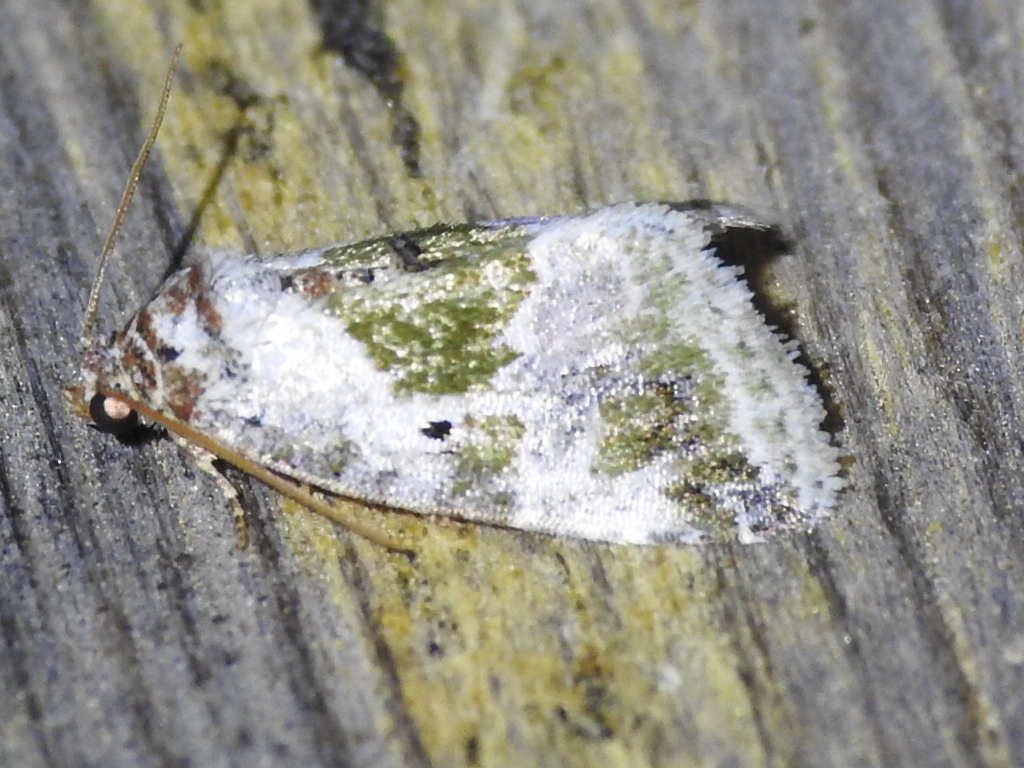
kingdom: Animalia
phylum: Arthropoda
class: Insecta
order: Lepidoptera
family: Noctuidae
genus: Maliattha
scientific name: Maliattha synochitis
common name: Black-dotted glyph
